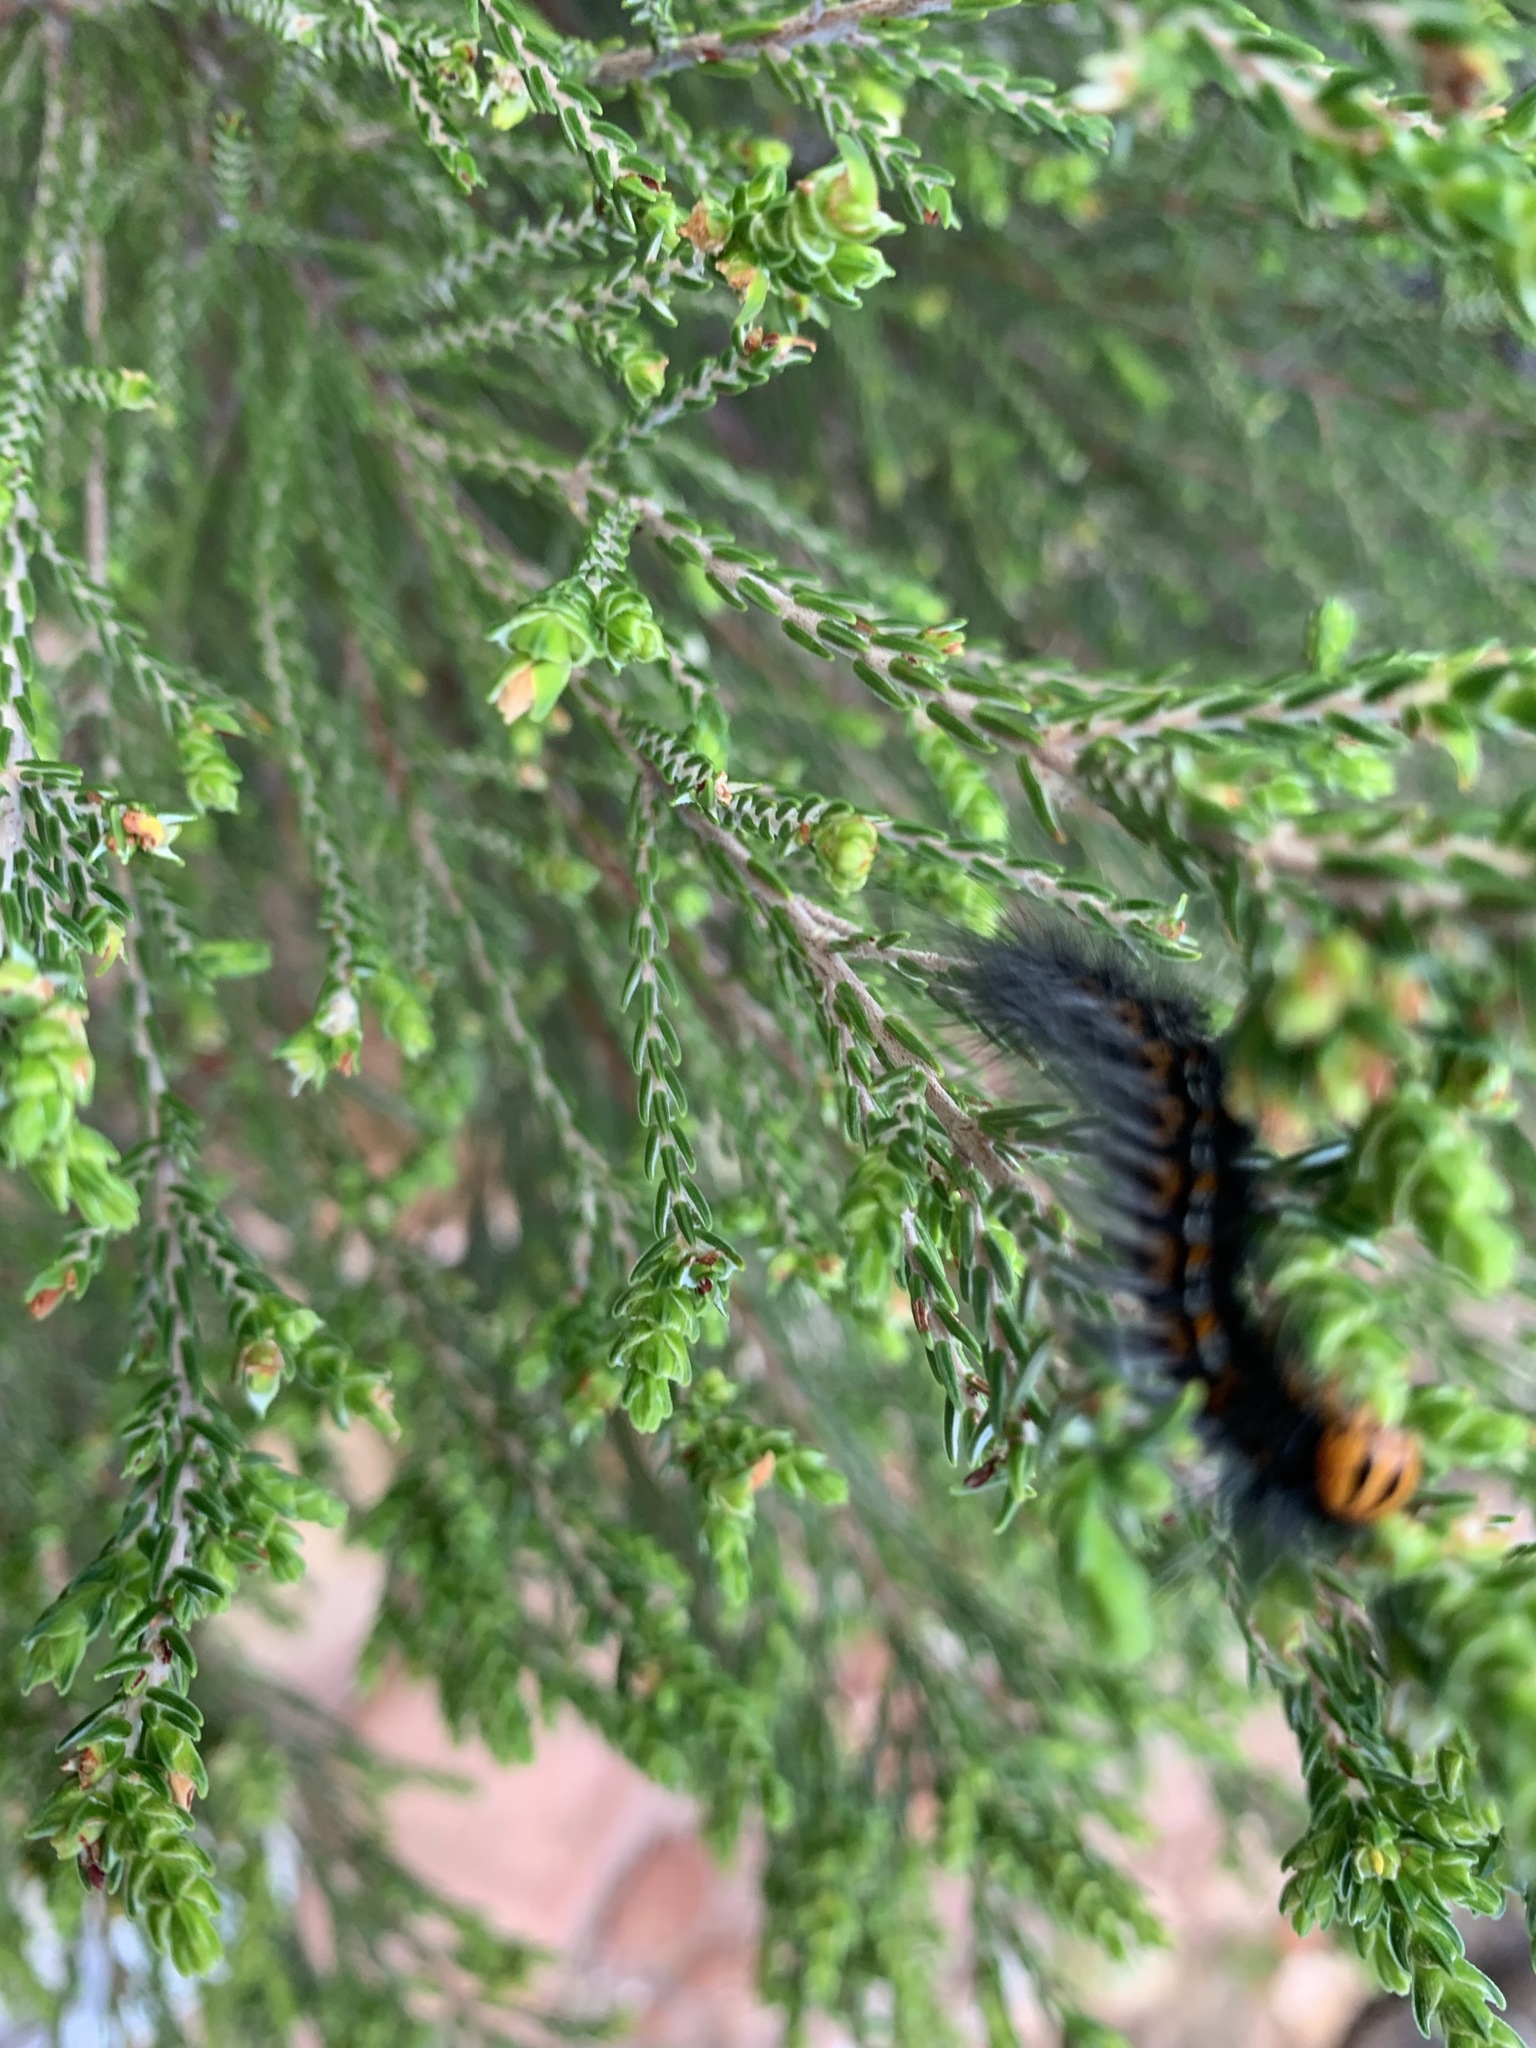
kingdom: Animalia
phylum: Arthropoda
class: Insecta
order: Lepidoptera
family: Lasiocampidae
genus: Mesocelis
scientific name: Mesocelis monticola
